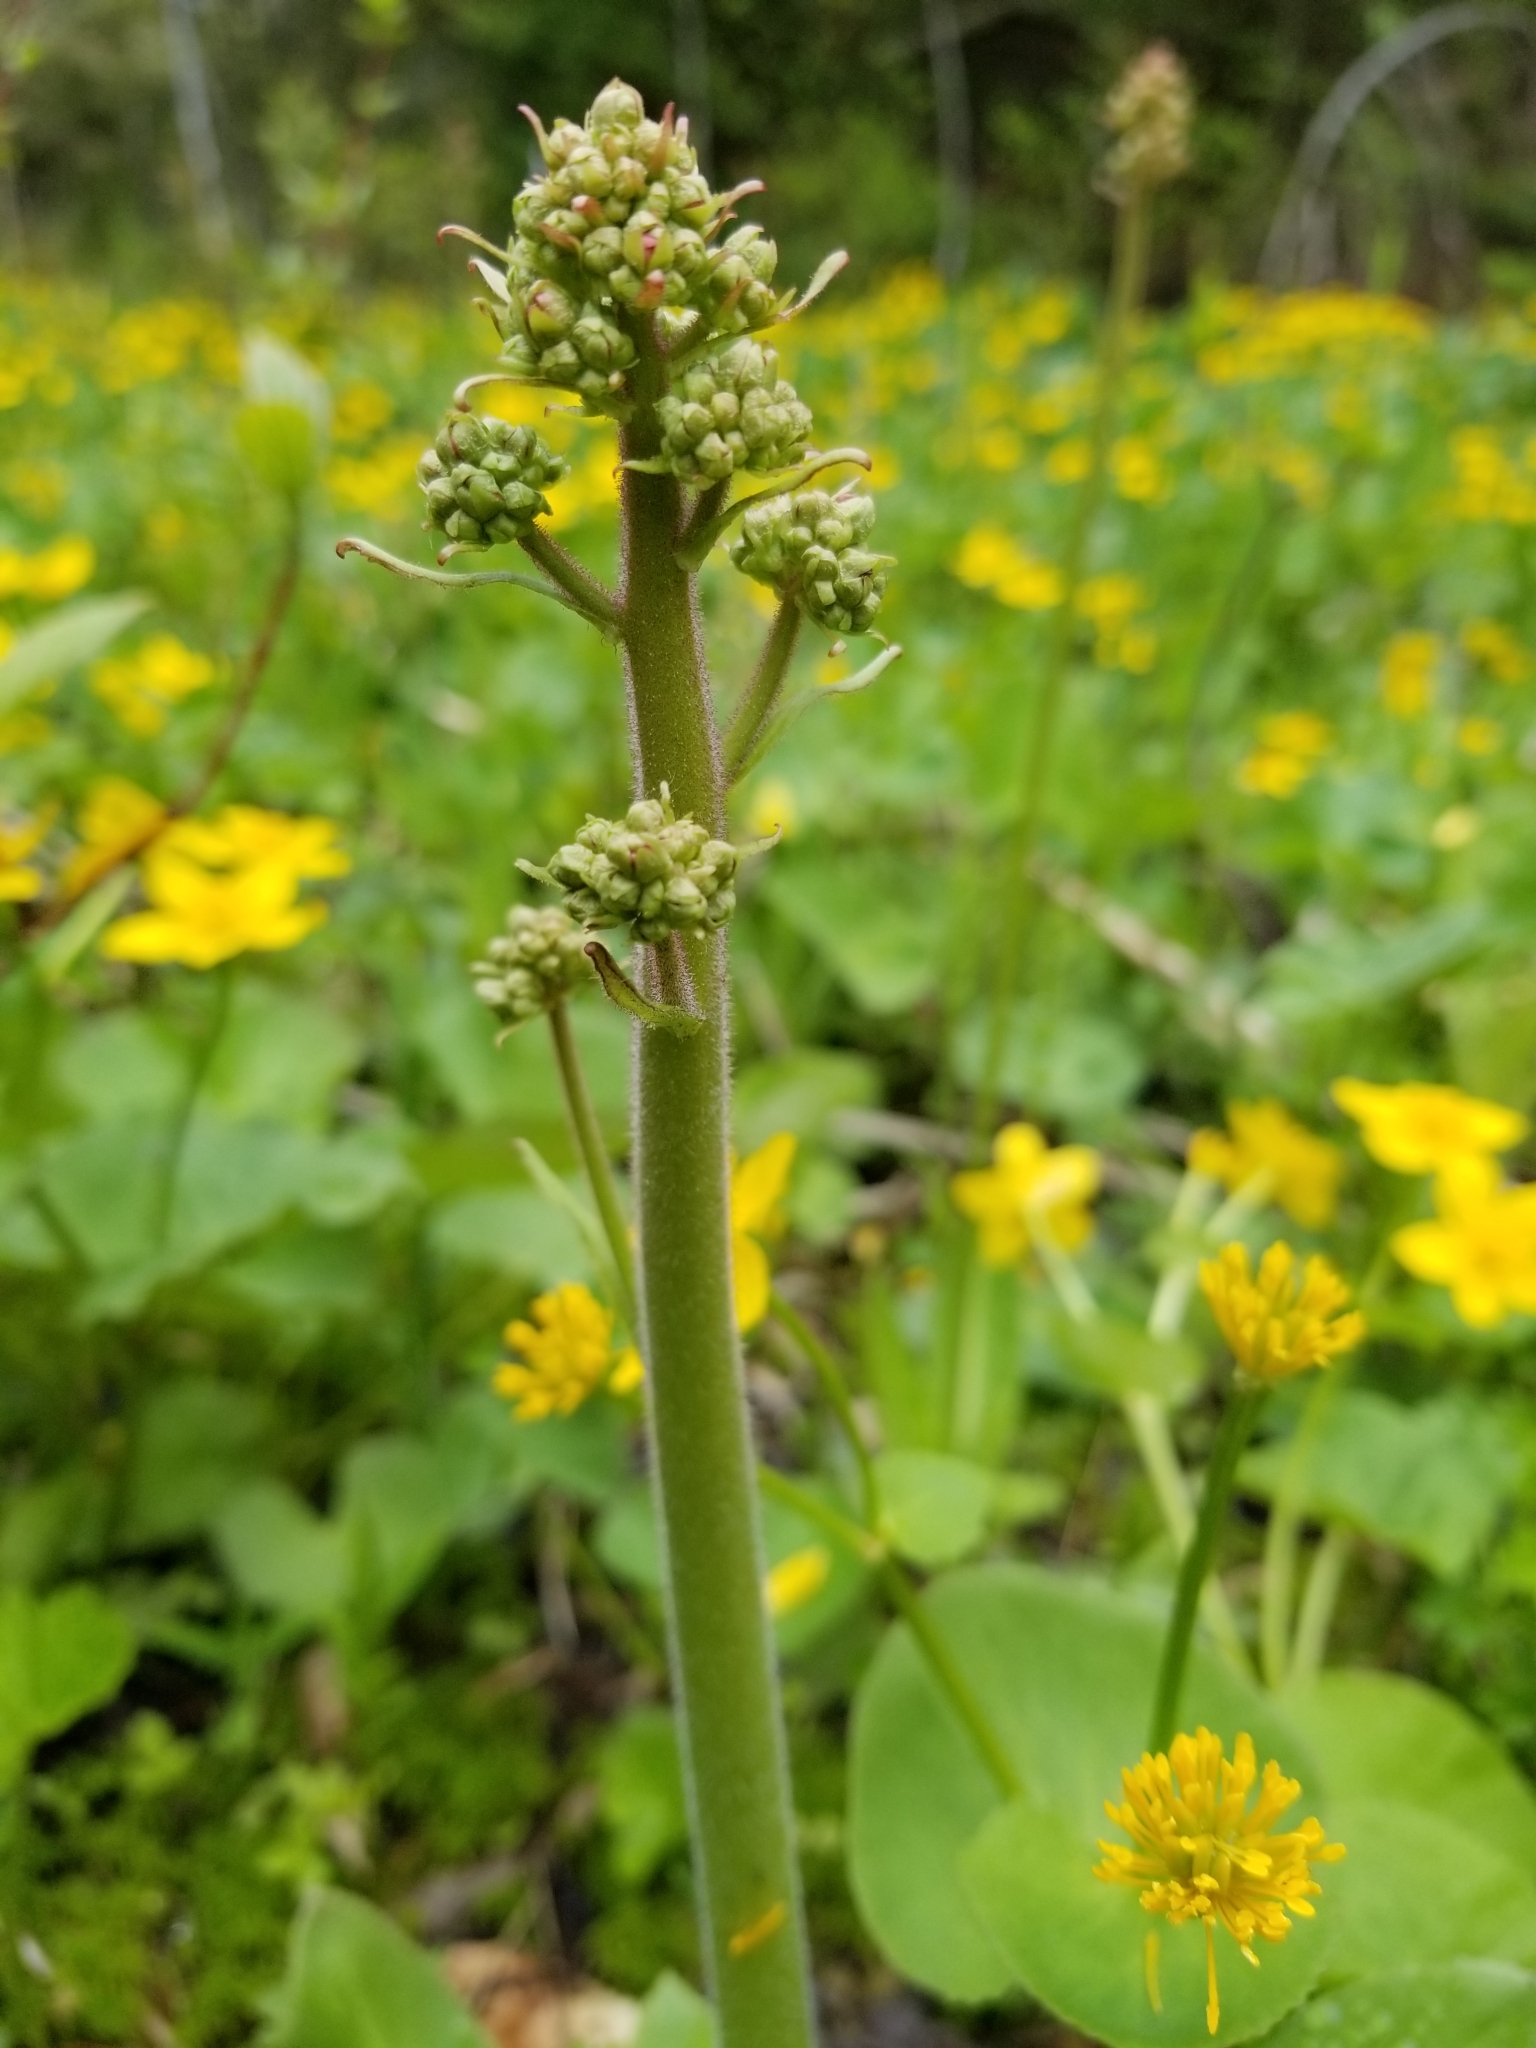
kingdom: Plantae
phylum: Tracheophyta
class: Magnoliopsida
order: Saxifragales
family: Saxifragaceae
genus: Micranthes
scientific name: Micranthes pensylvanica
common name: Marsh saxifrage
